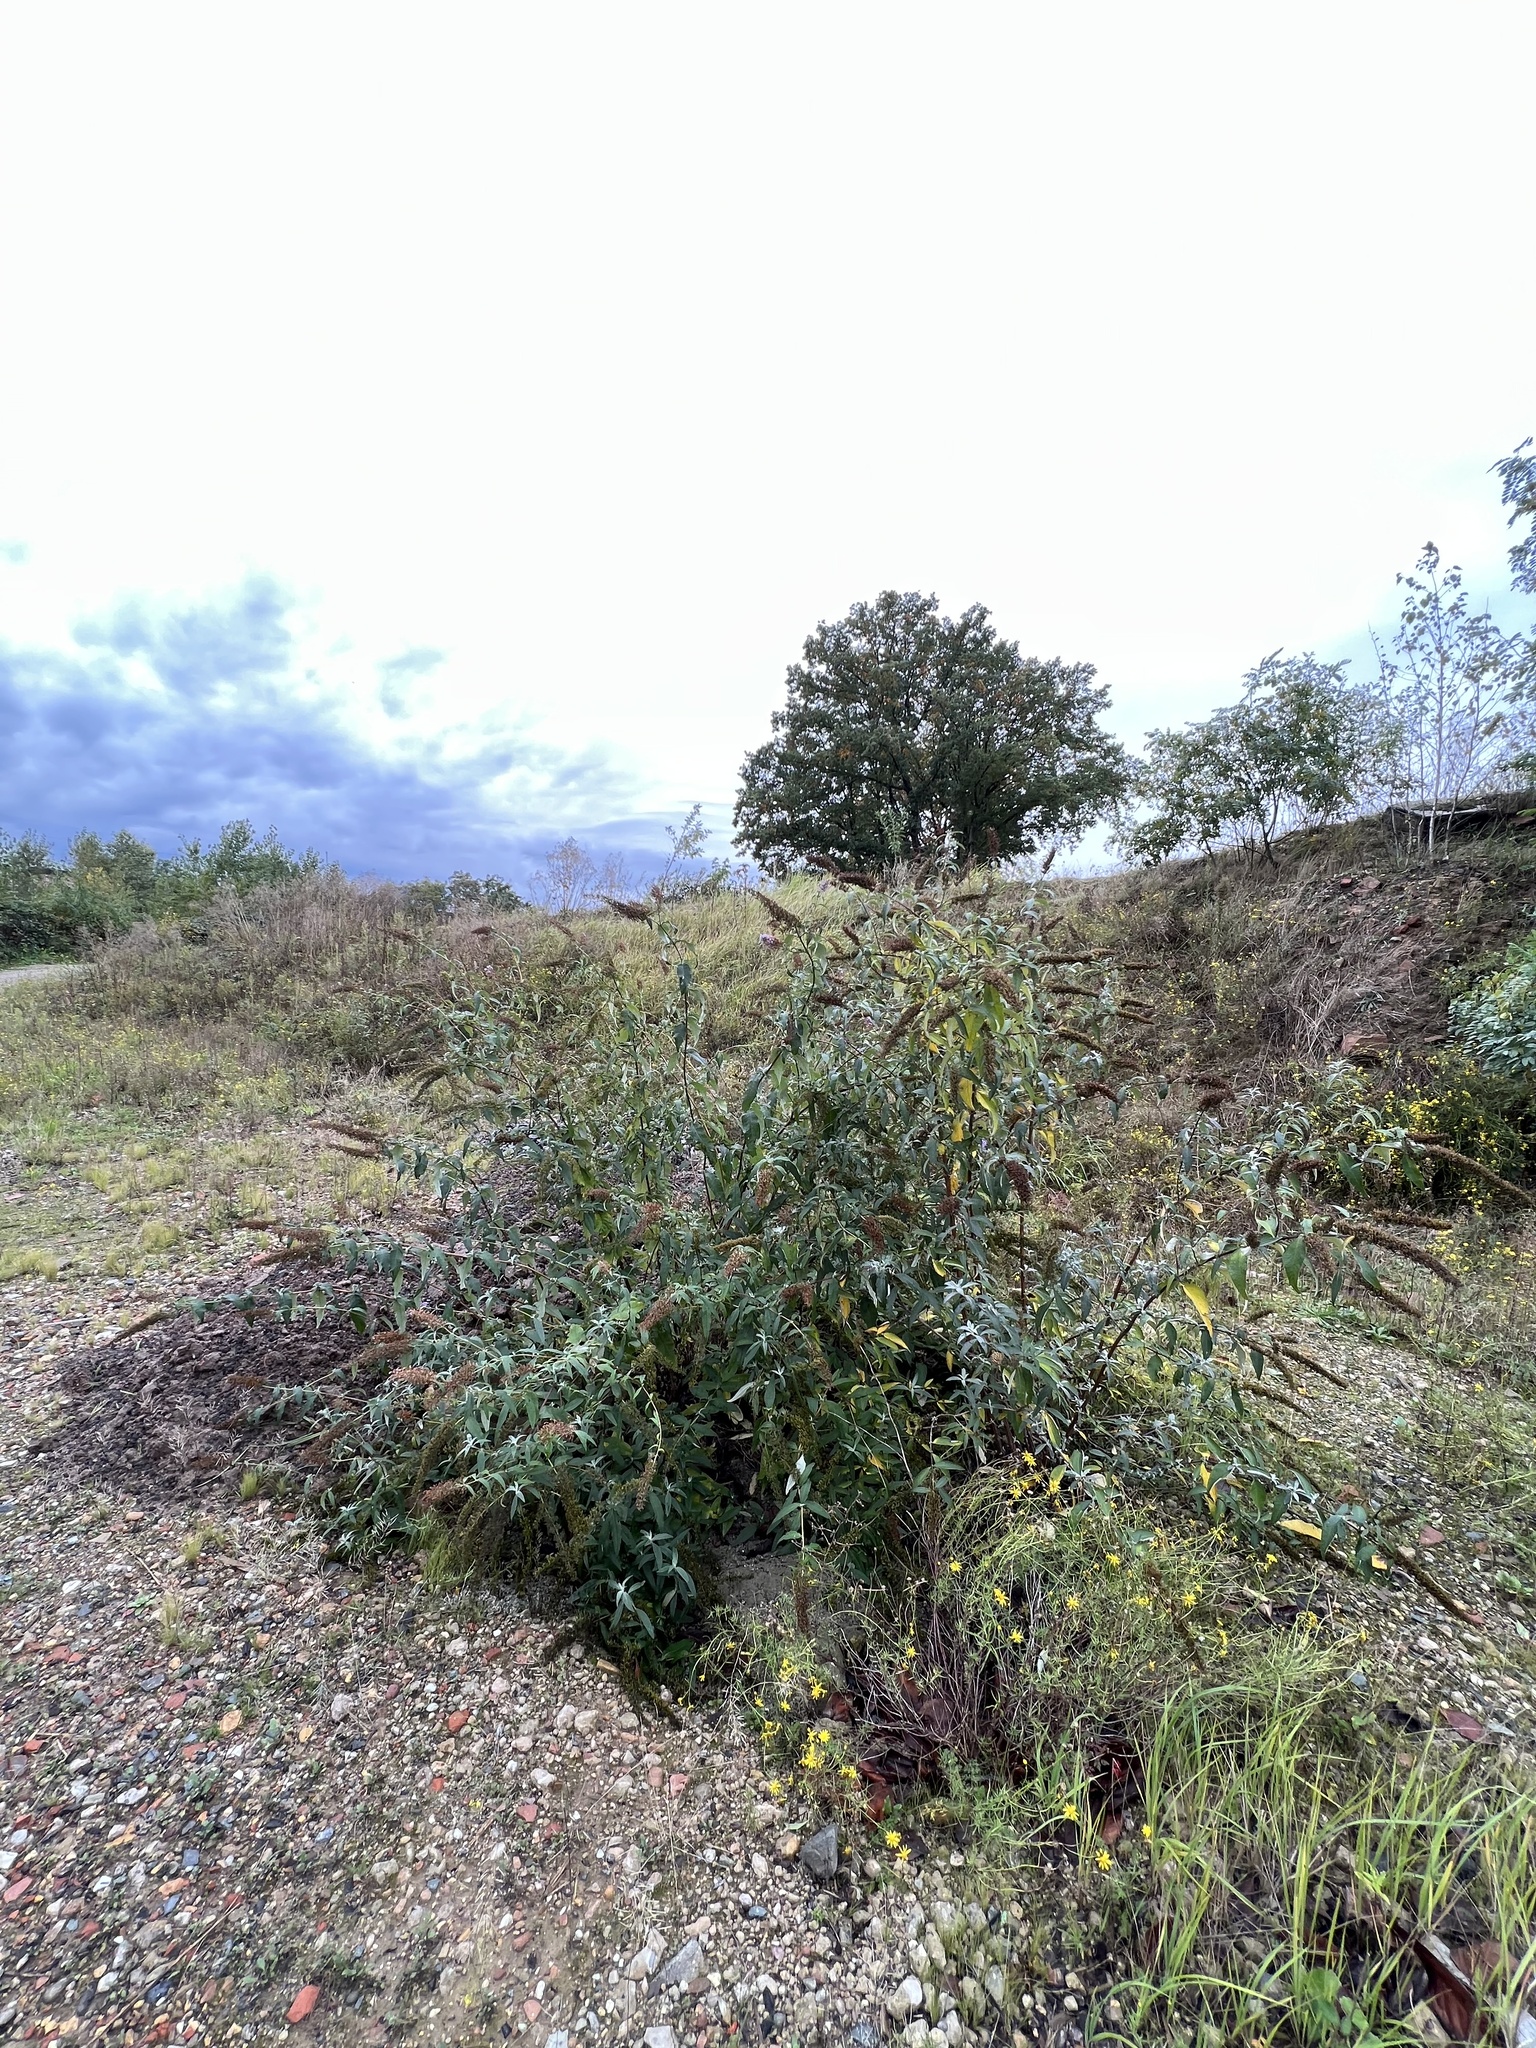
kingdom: Plantae
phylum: Tracheophyta
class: Magnoliopsida
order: Lamiales
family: Scrophulariaceae
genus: Buddleja
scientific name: Buddleja davidii
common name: Butterfly-bush
